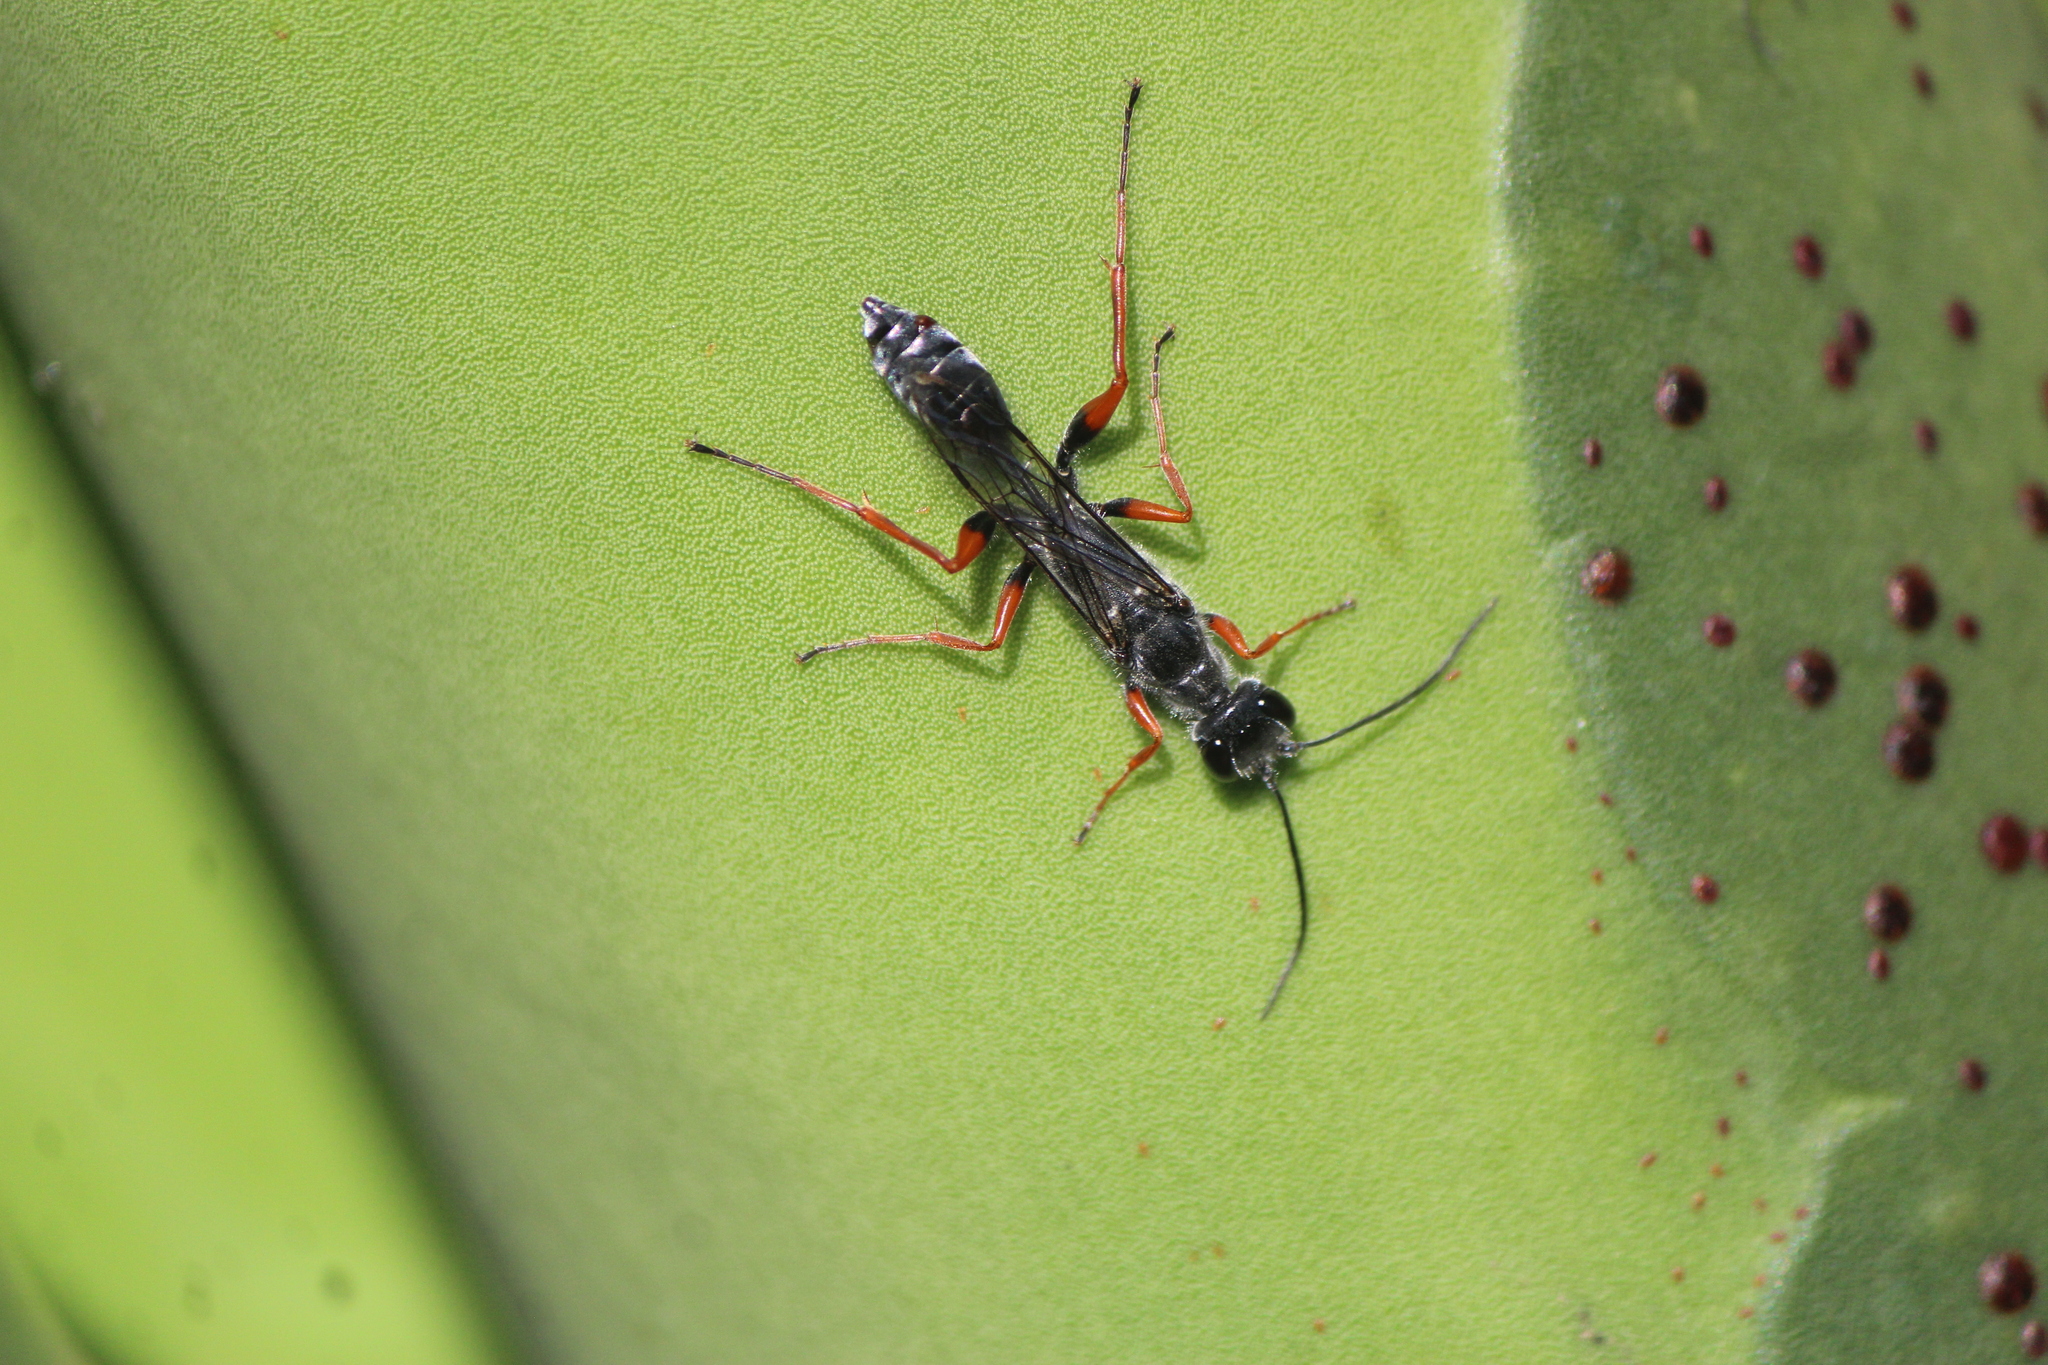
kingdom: Animalia
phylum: Arthropoda
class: Insecta
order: Hymenoptera
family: Sphecidae
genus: Podium
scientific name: Podium rufipes
